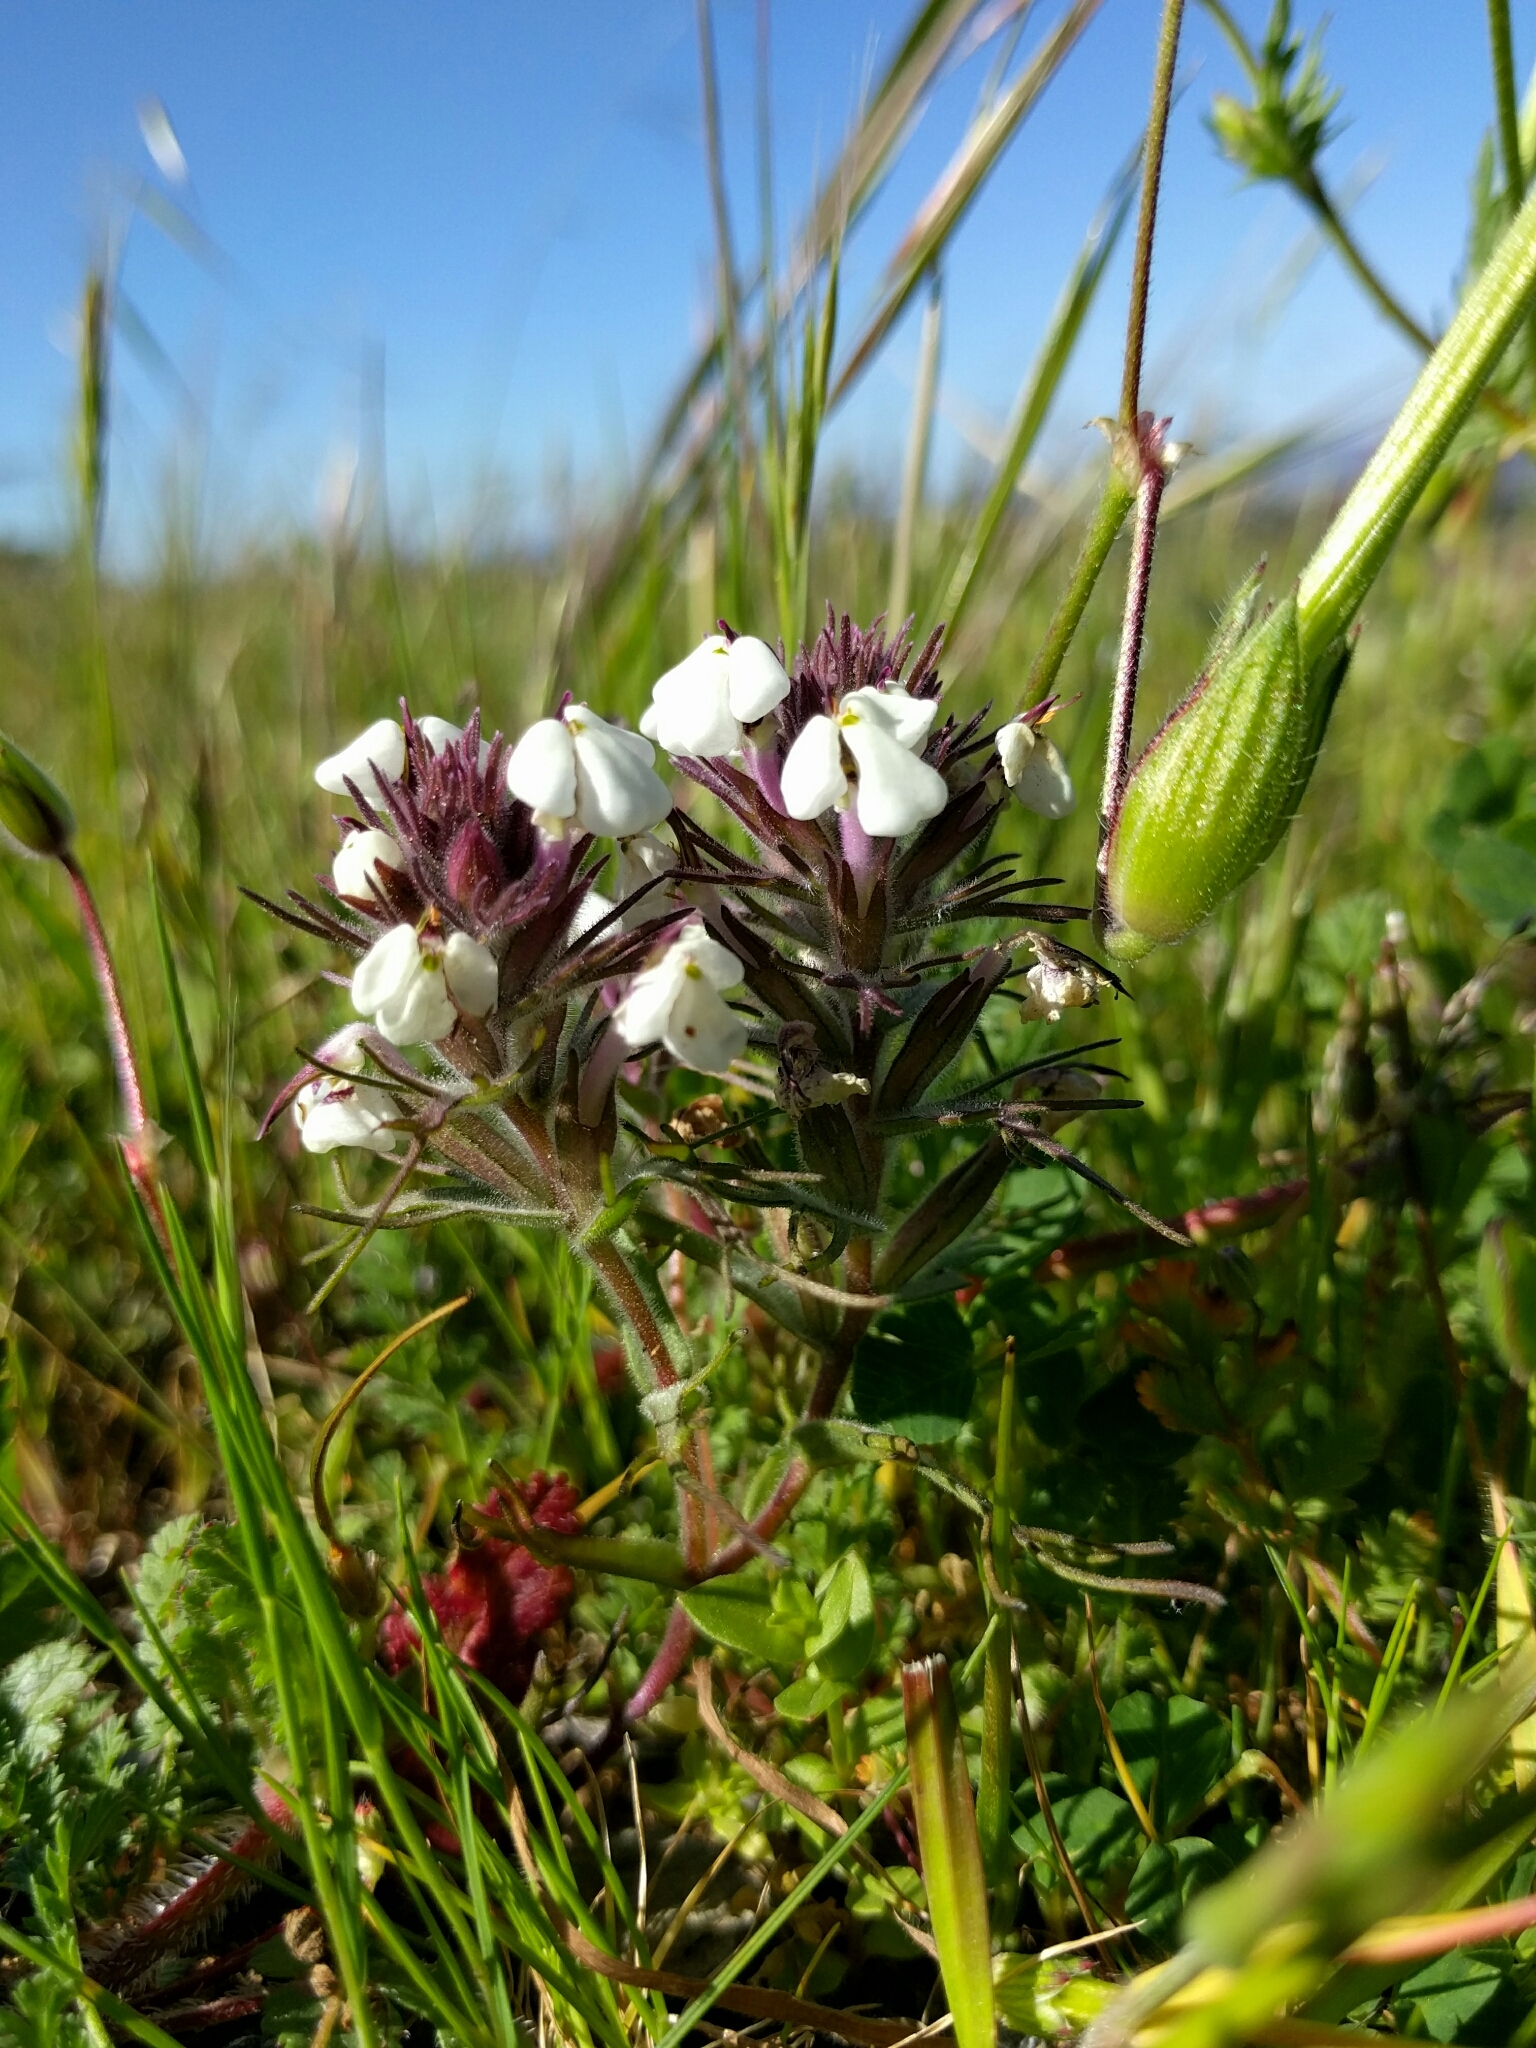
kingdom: Plantae
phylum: Tracheophyta
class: Magnoliopsida
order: Lamiales
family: Orobanchaceae
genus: Triphysaria
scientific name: Triphysaria eriantha
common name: Johnny-tuck
